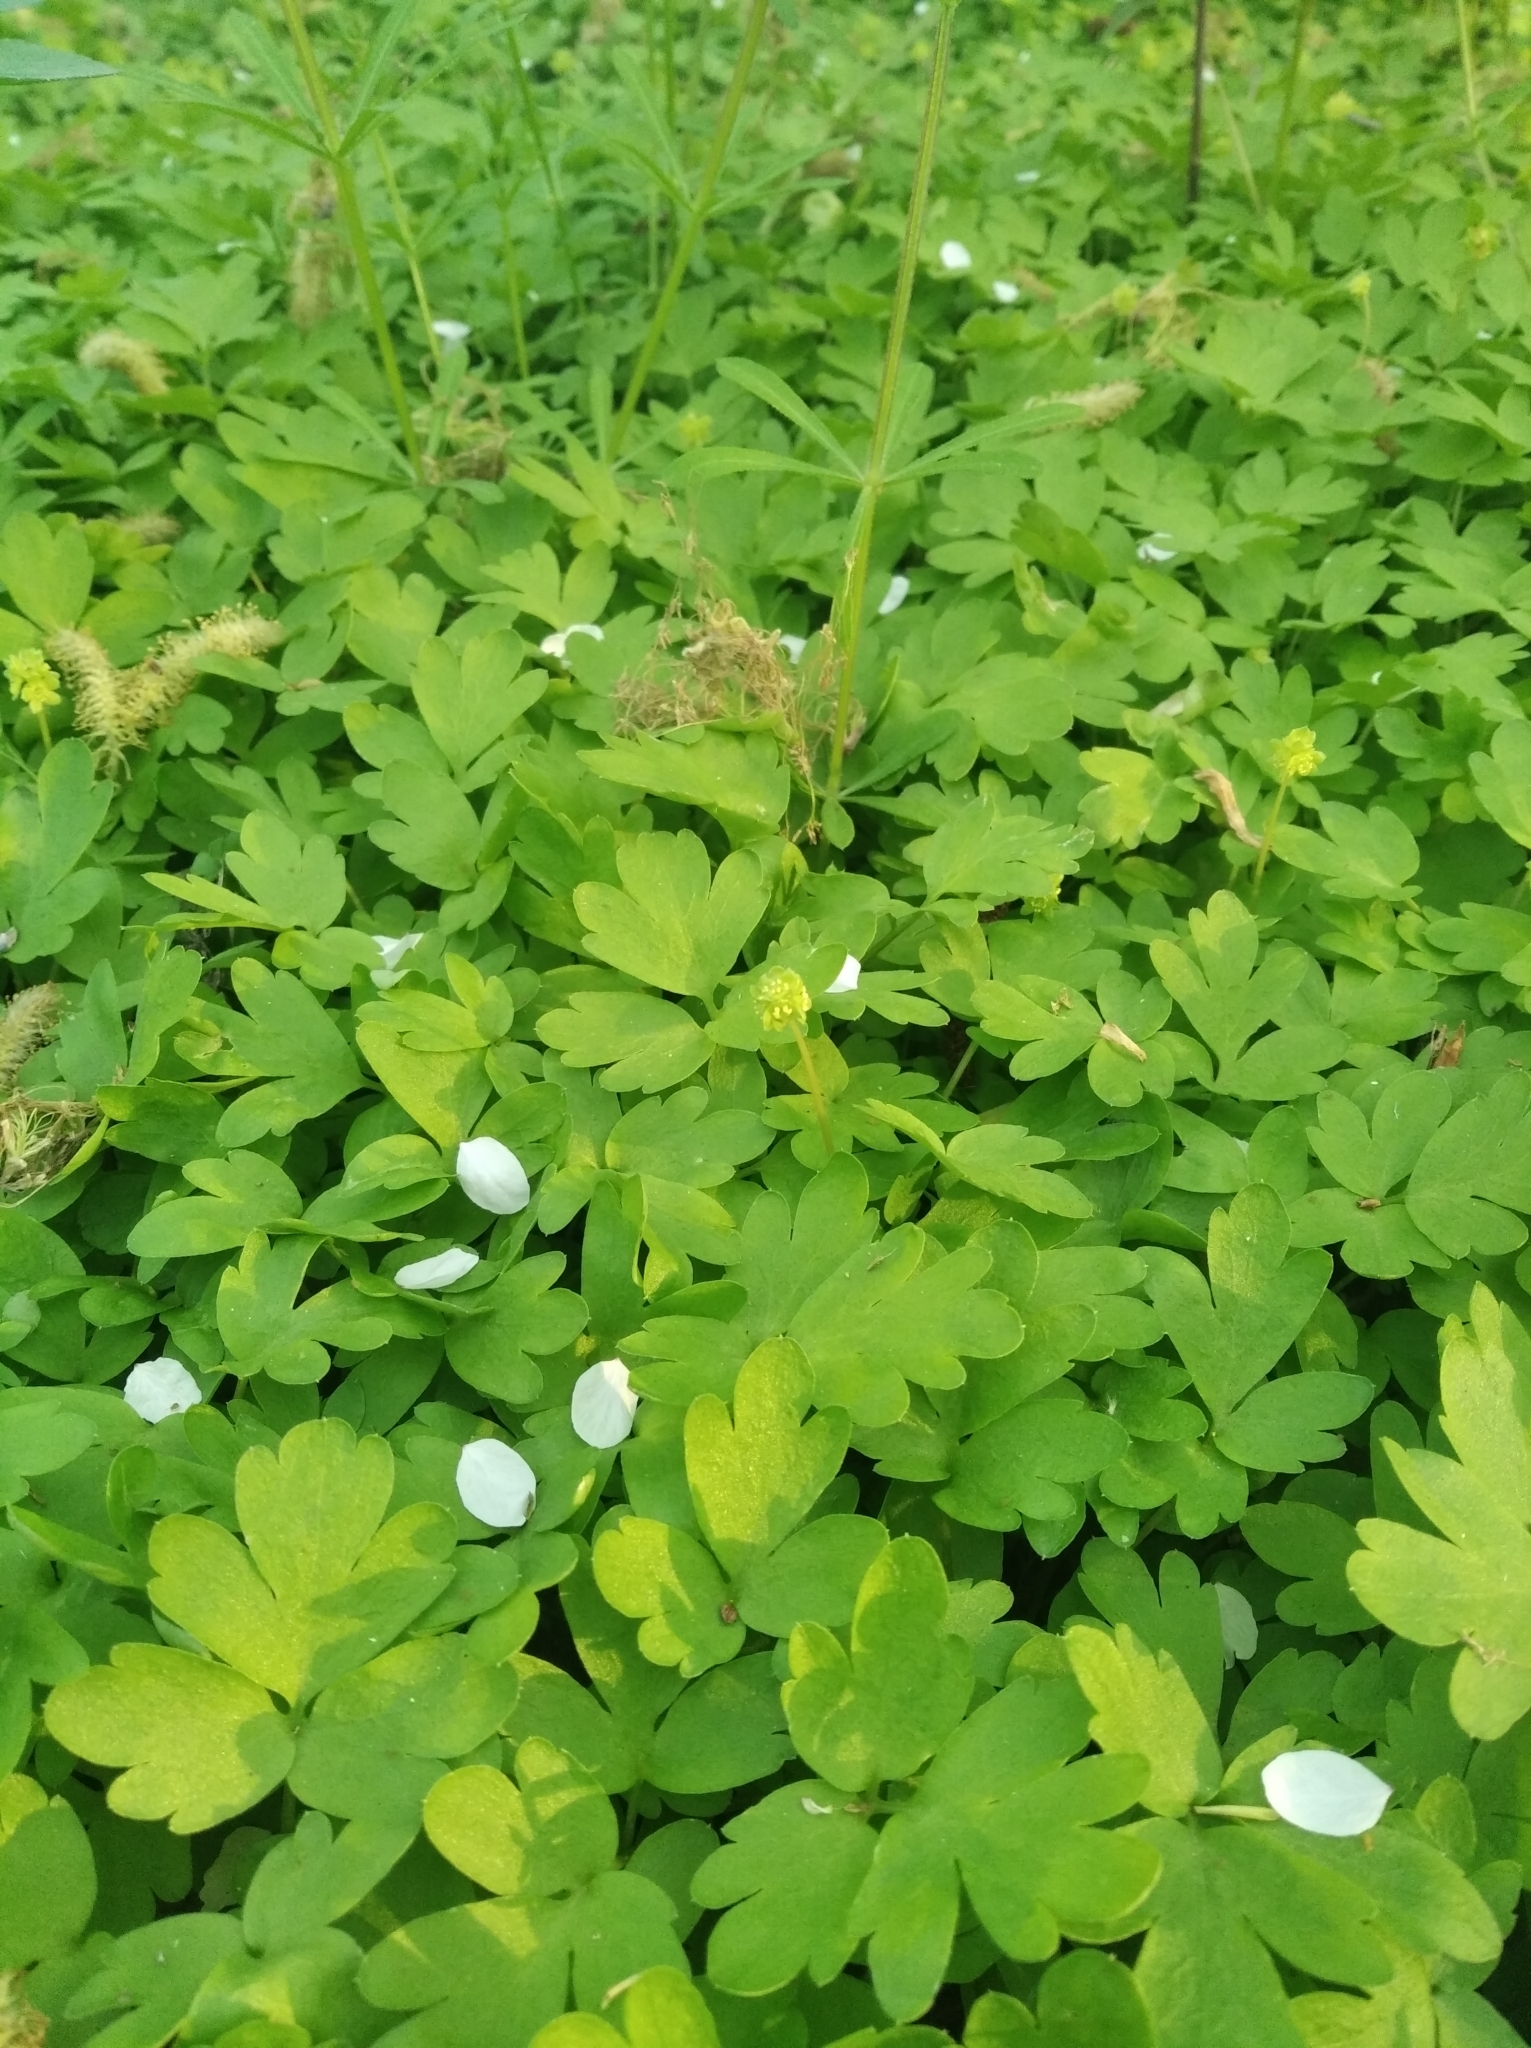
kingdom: Plantae
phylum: Tracheophyta
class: Magnoliopsida
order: Dipsacales
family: Viburnaceae
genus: Adoxa
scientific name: Adoxa moschatellina
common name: Moschatel
